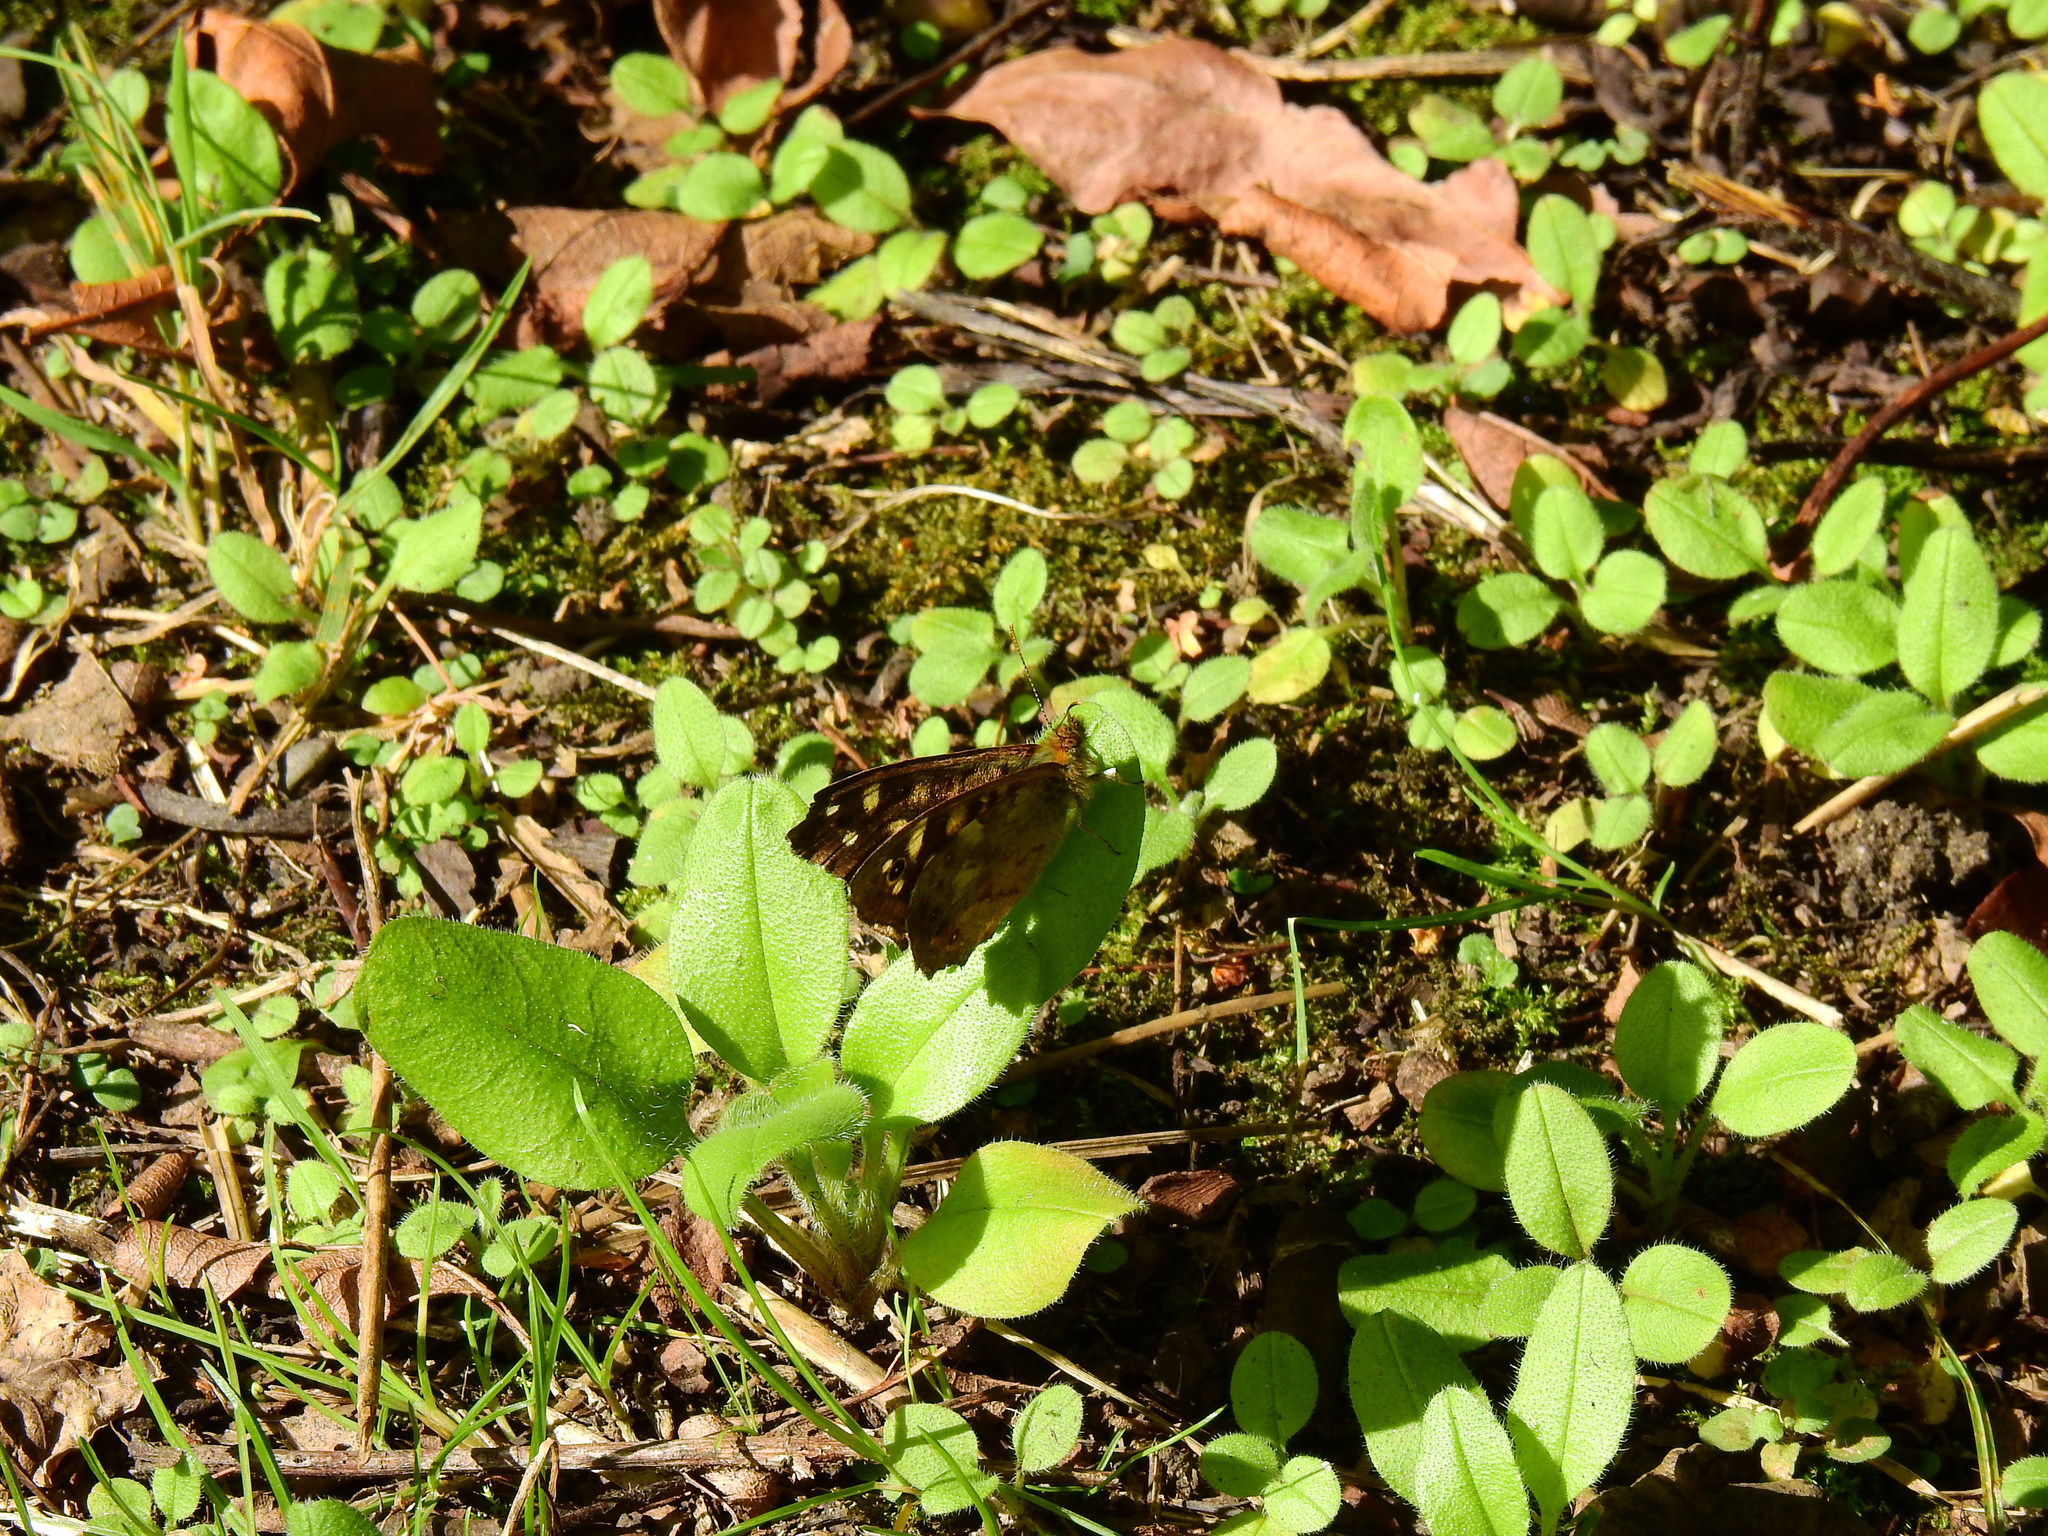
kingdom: Animalia
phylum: Arthropoda
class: Insecta
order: Lepidoptera
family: Nymphalidae
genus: Pararge
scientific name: Pararge aegeria
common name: Speckled wood
